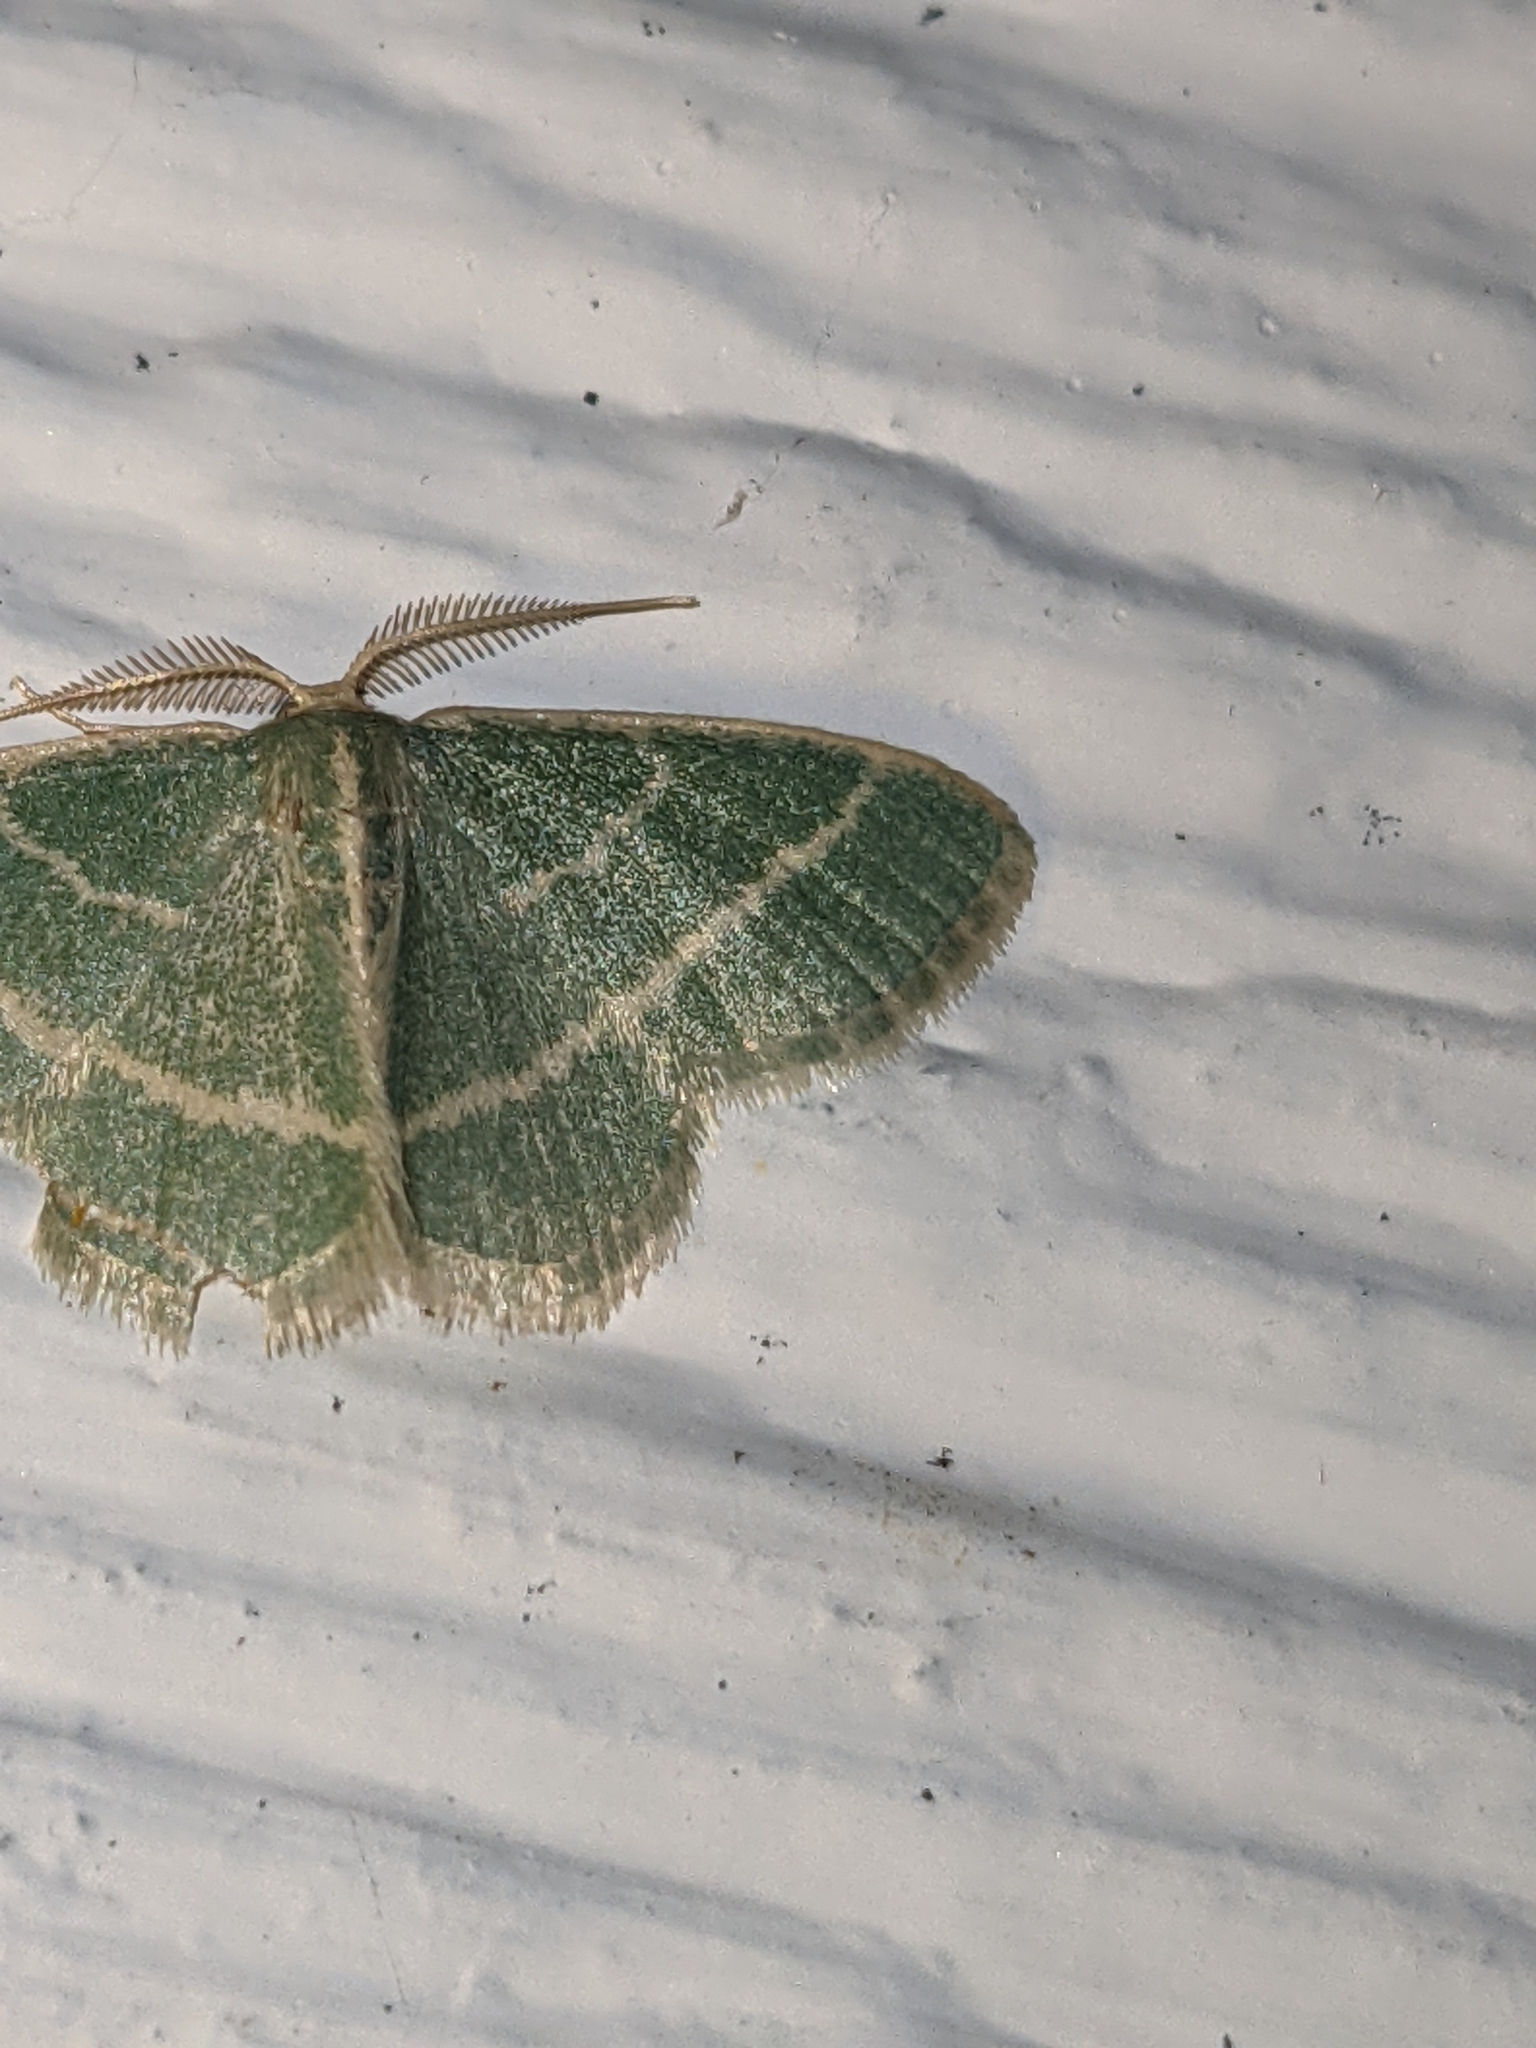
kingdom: Animalia
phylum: Arthropoda
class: Insecta
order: Lepidoptera
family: Geometridae
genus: Chlorochlamys
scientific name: Chlorochlamys chloroleucaria
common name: Blackberry looper
